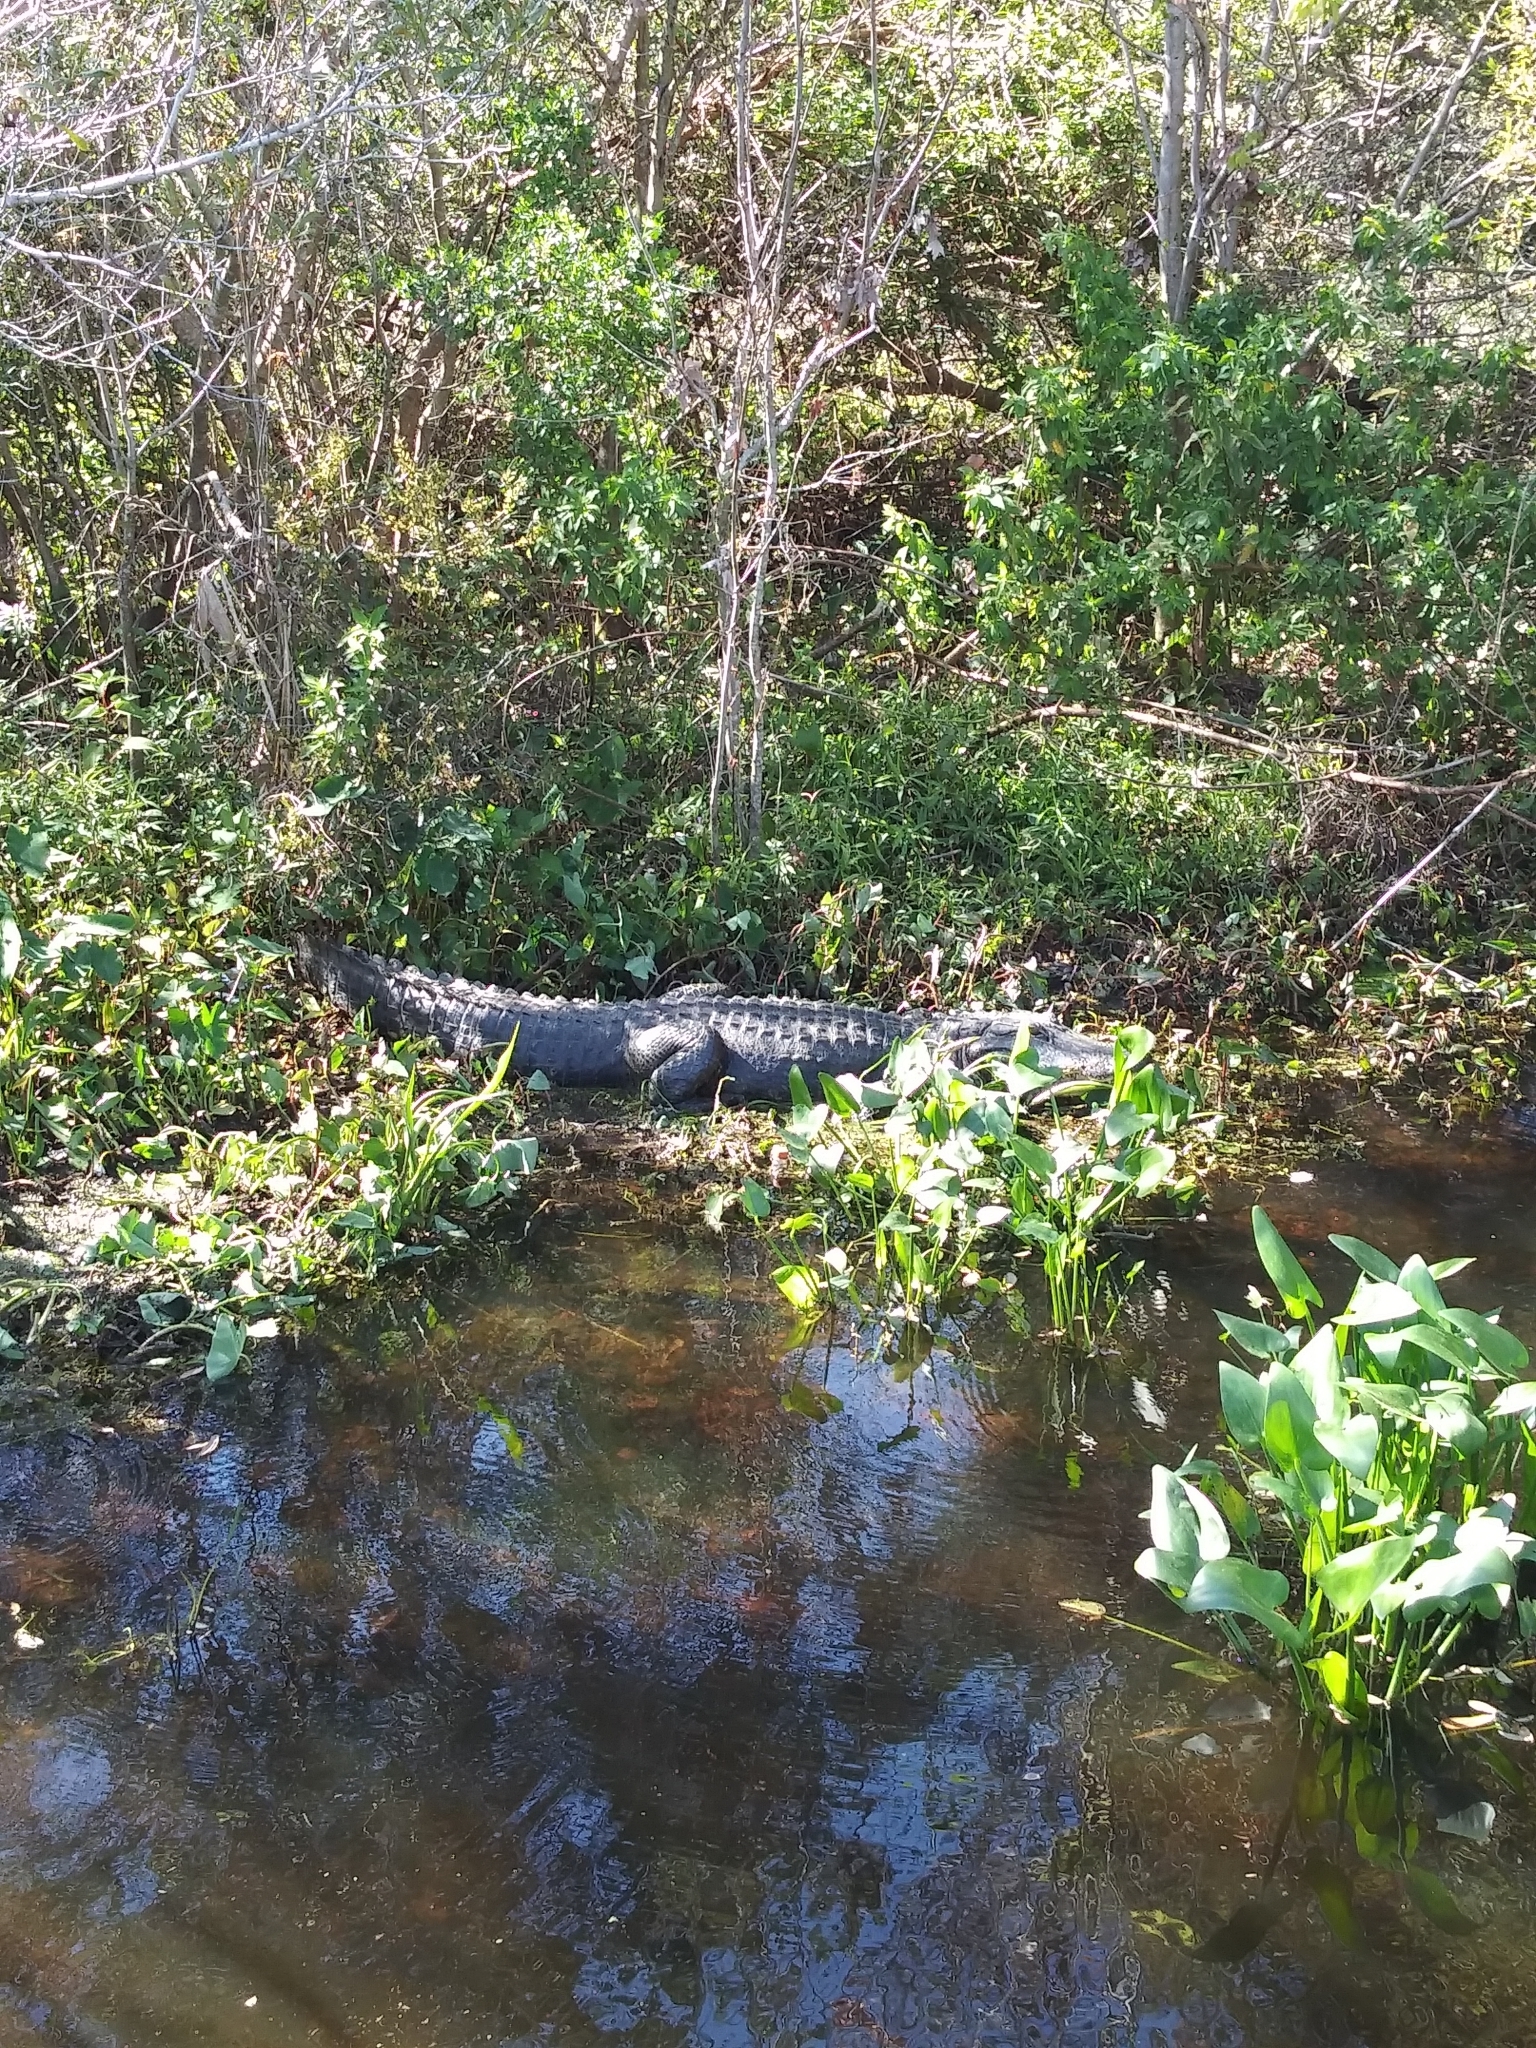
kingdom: Animalia
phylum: Chordata
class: Crocodylia
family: Alligatoridae
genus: Alligator
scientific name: Alligator mississippiensis
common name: American alligator
